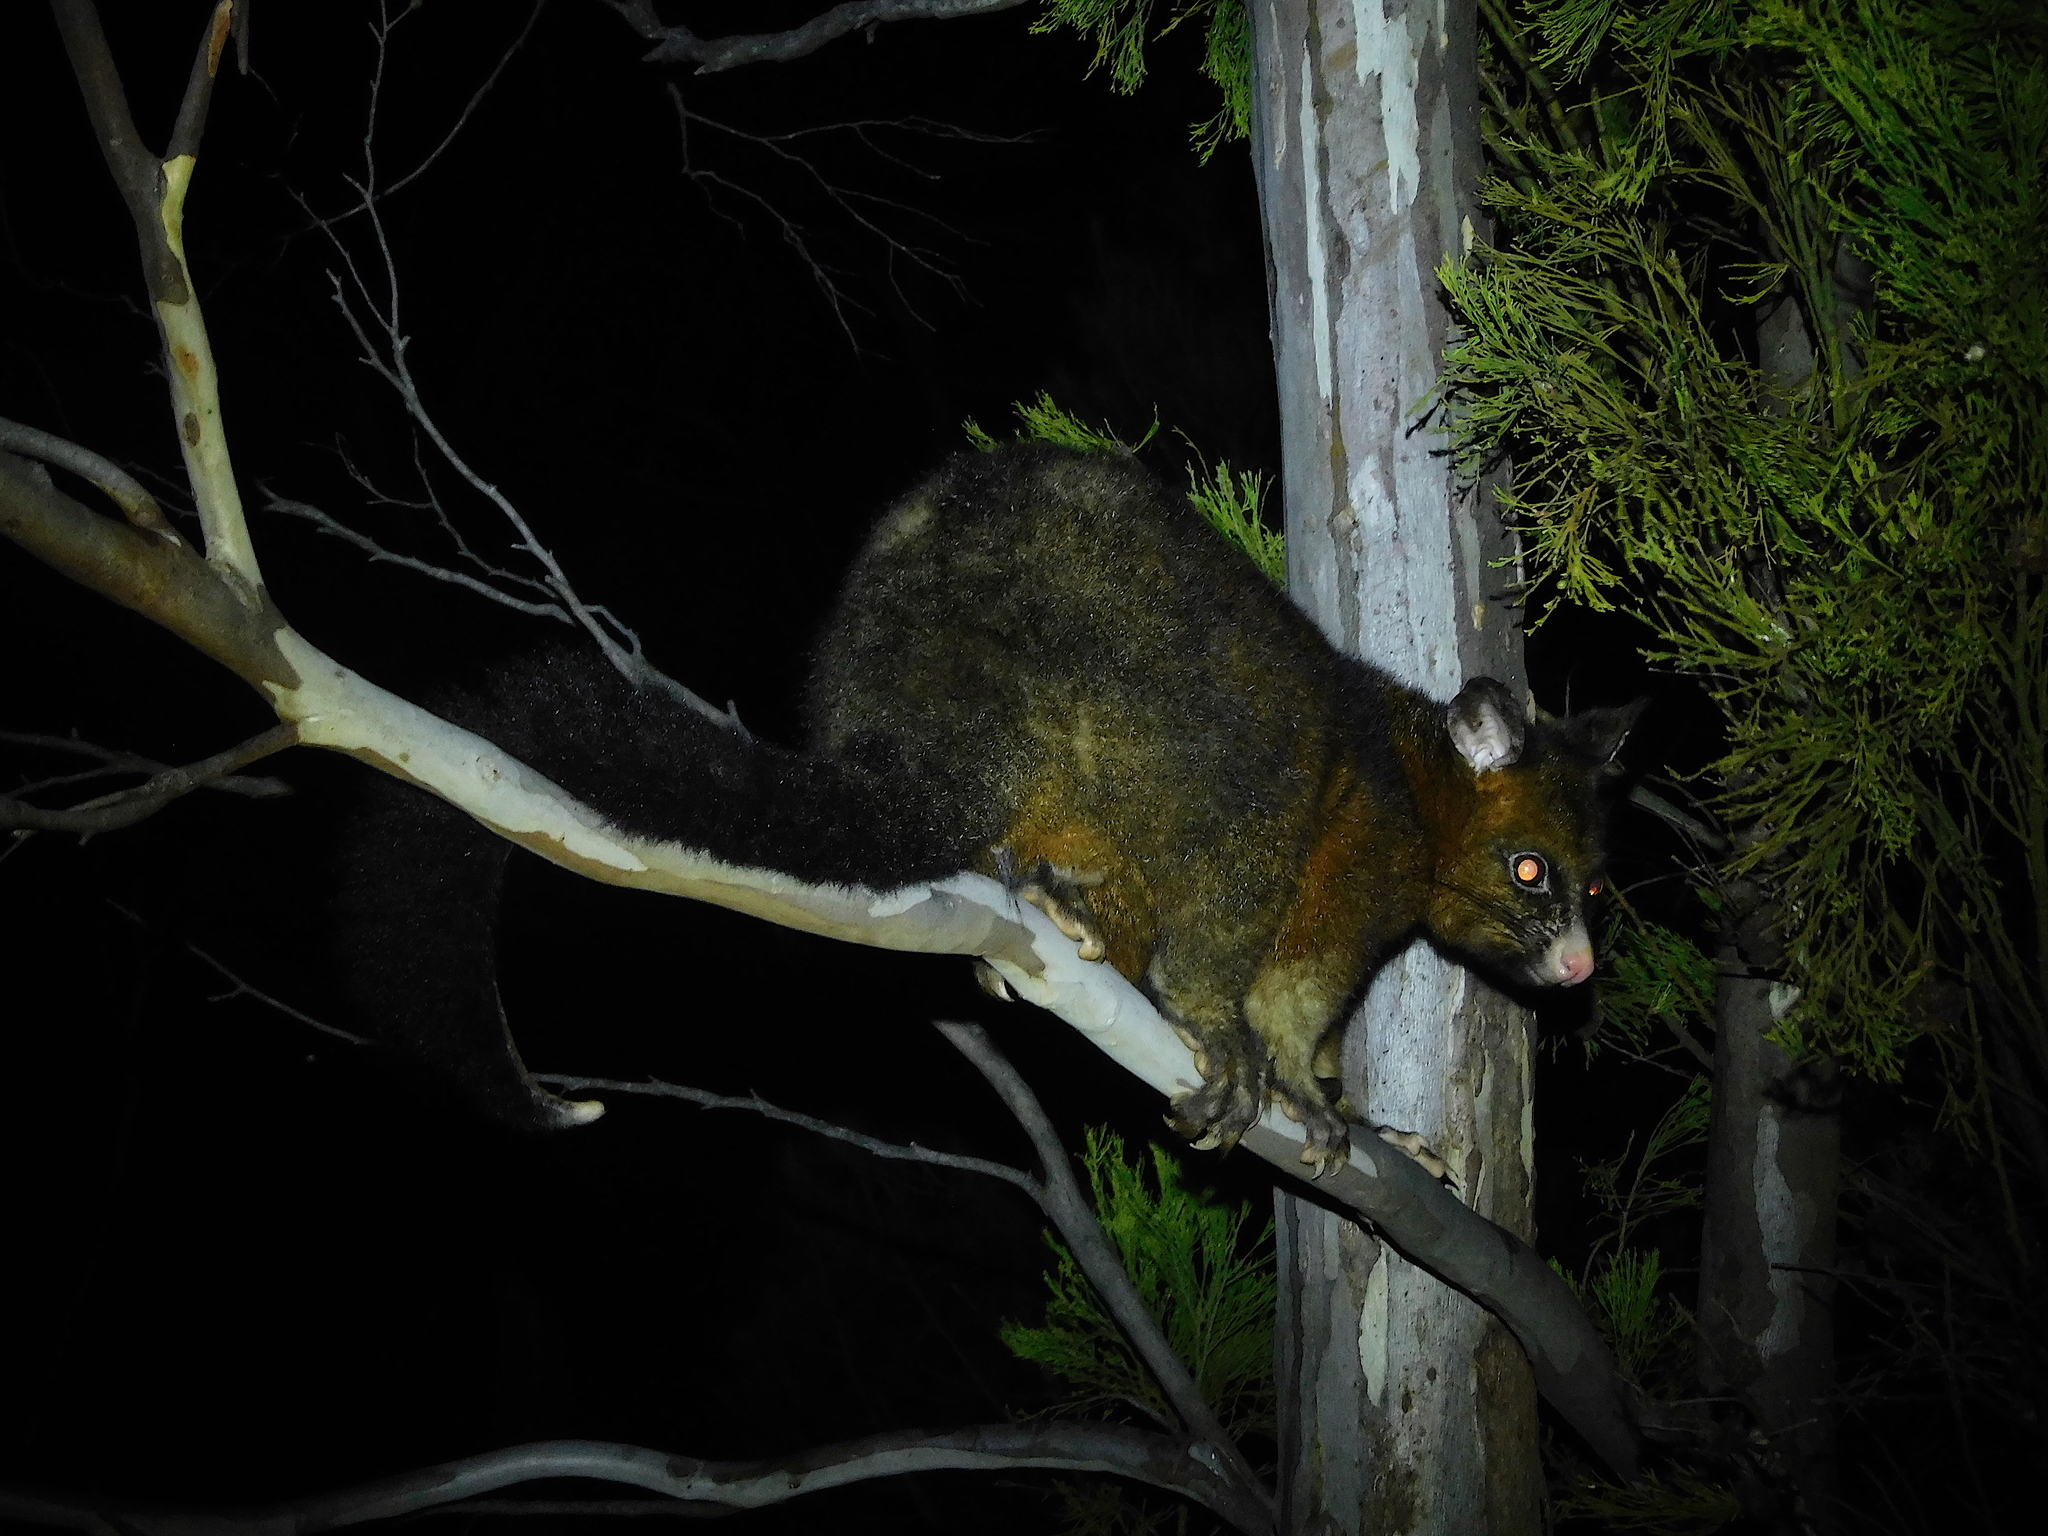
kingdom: Animalia
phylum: Chordata
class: Mammalia
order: Diprotodontia
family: Phalangeridae
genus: Trichosurus
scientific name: Trichosurus vulpecula
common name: Common brushtail
